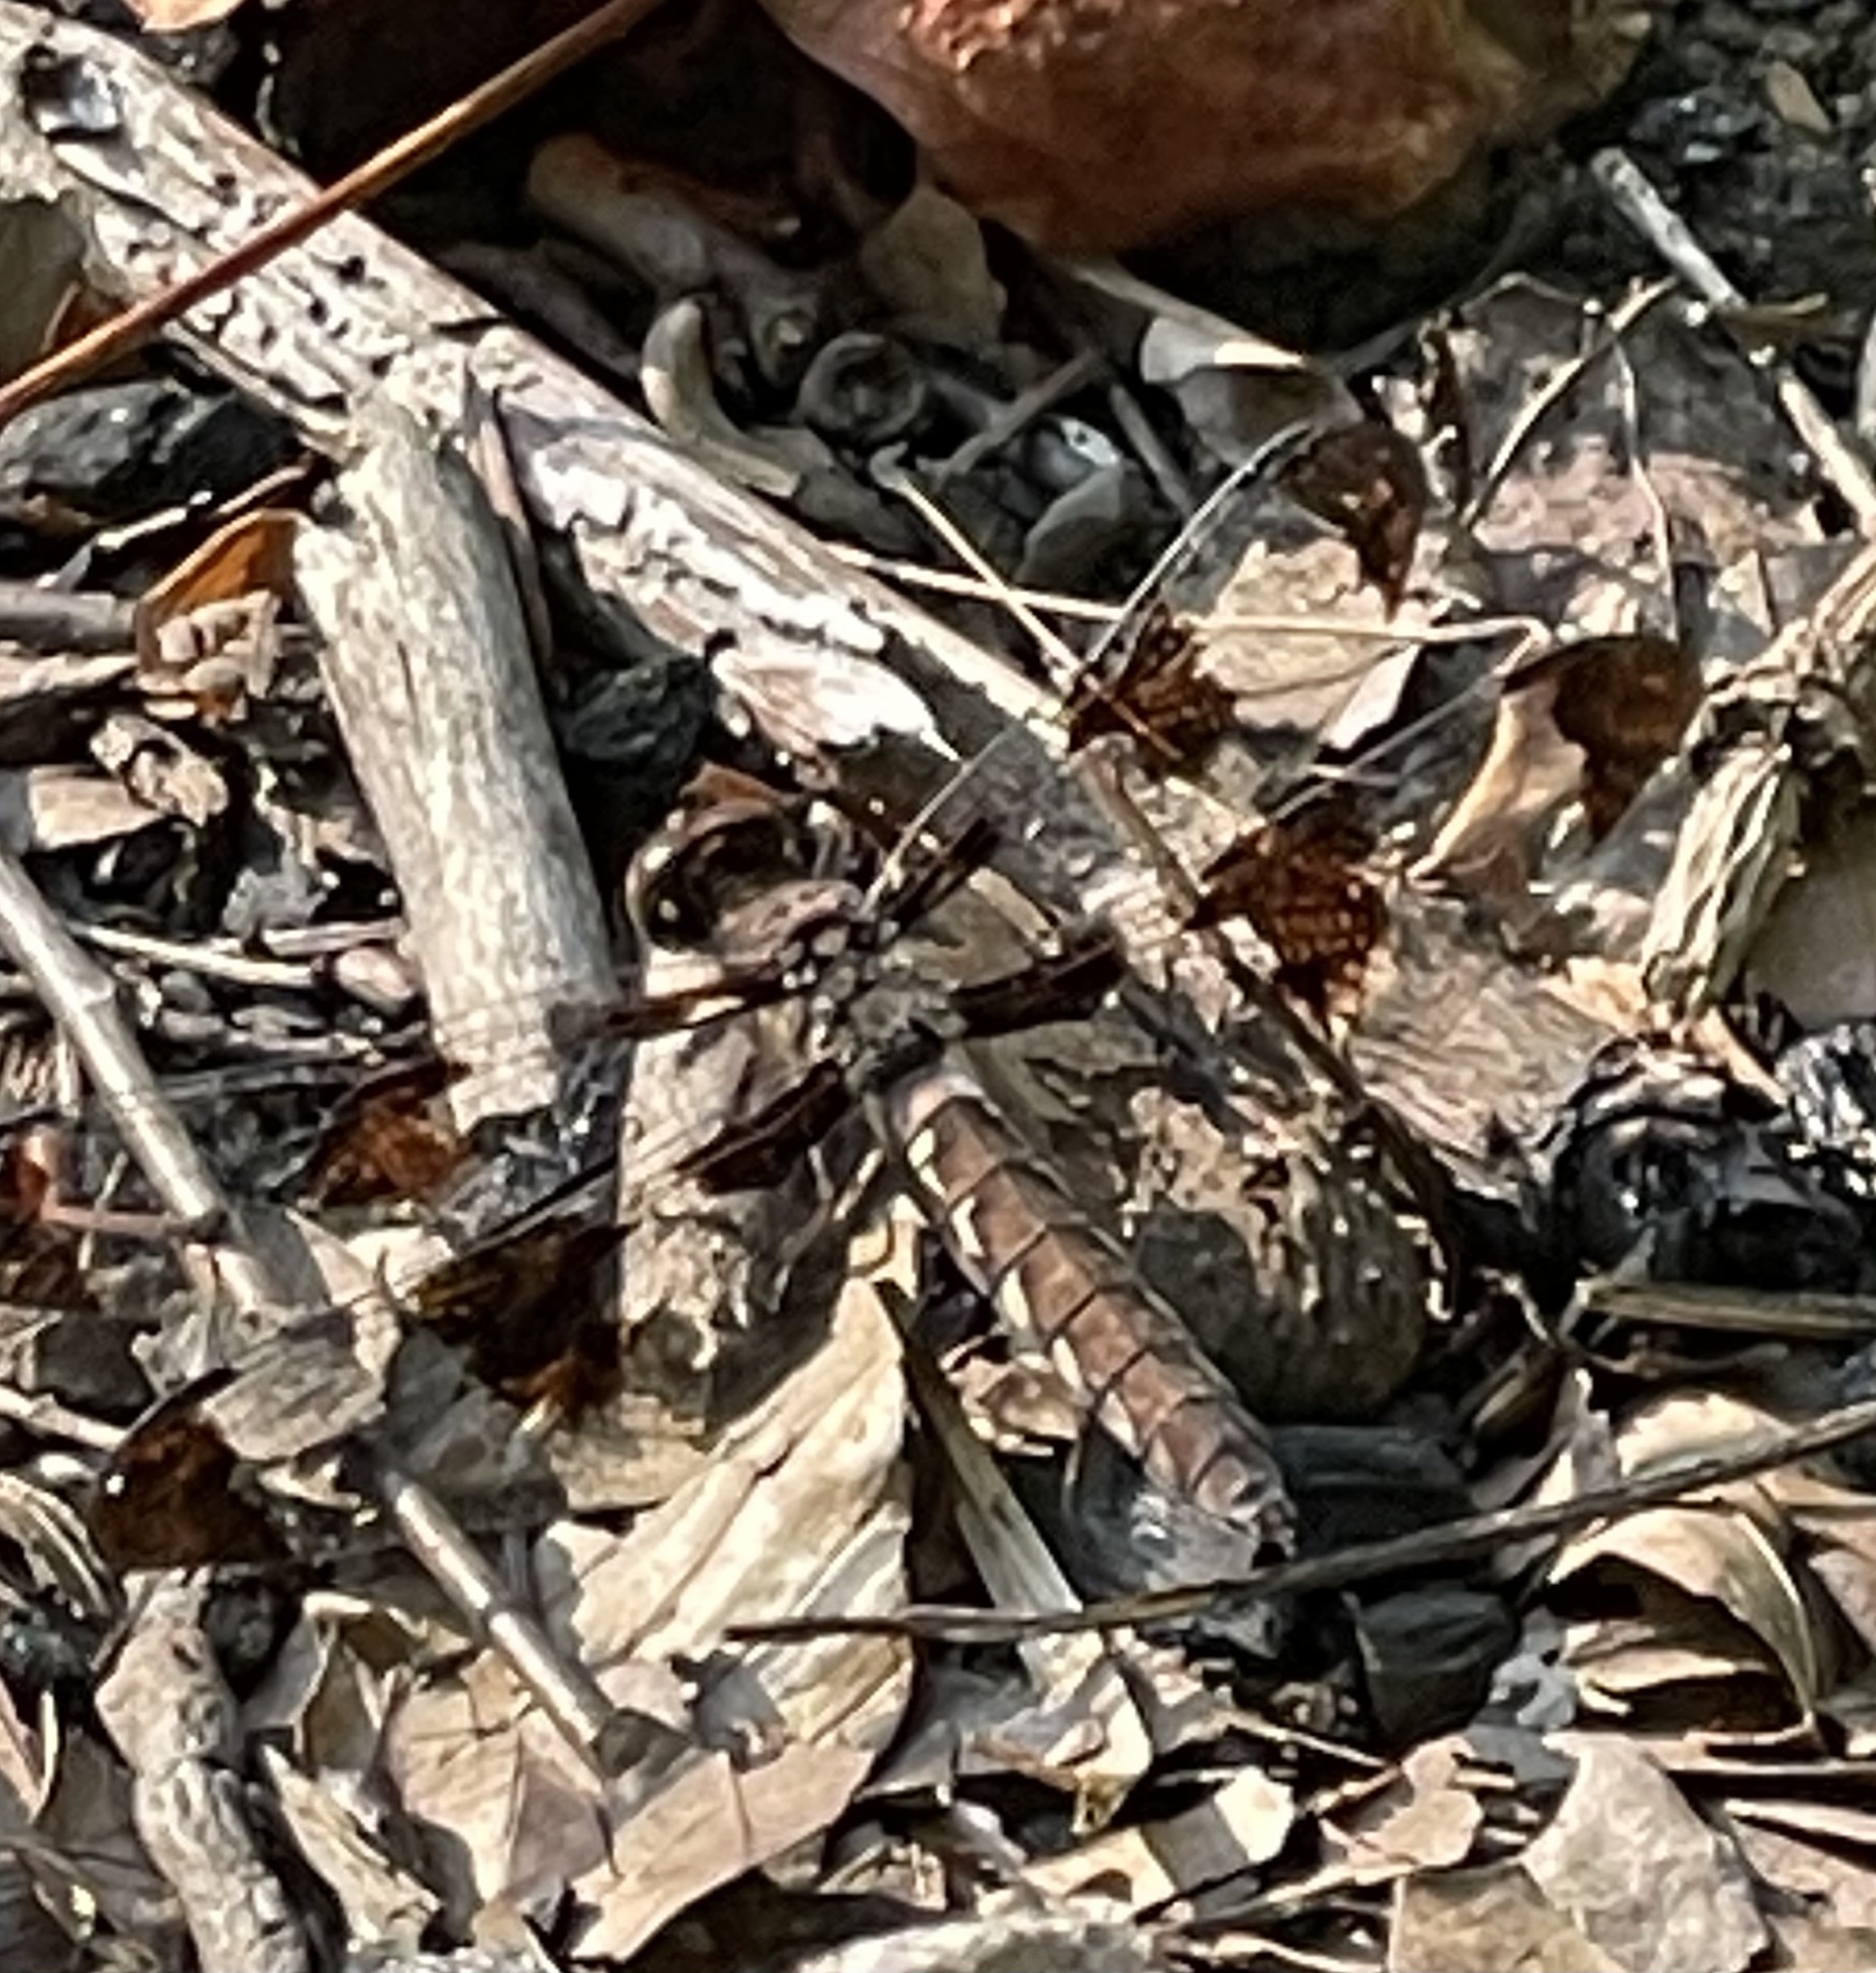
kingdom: Animalia
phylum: Arthropoda
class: Insecta
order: Odonata
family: Libellulidae
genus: Plathemis
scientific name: Plathemis lydia
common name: Common whitetail
